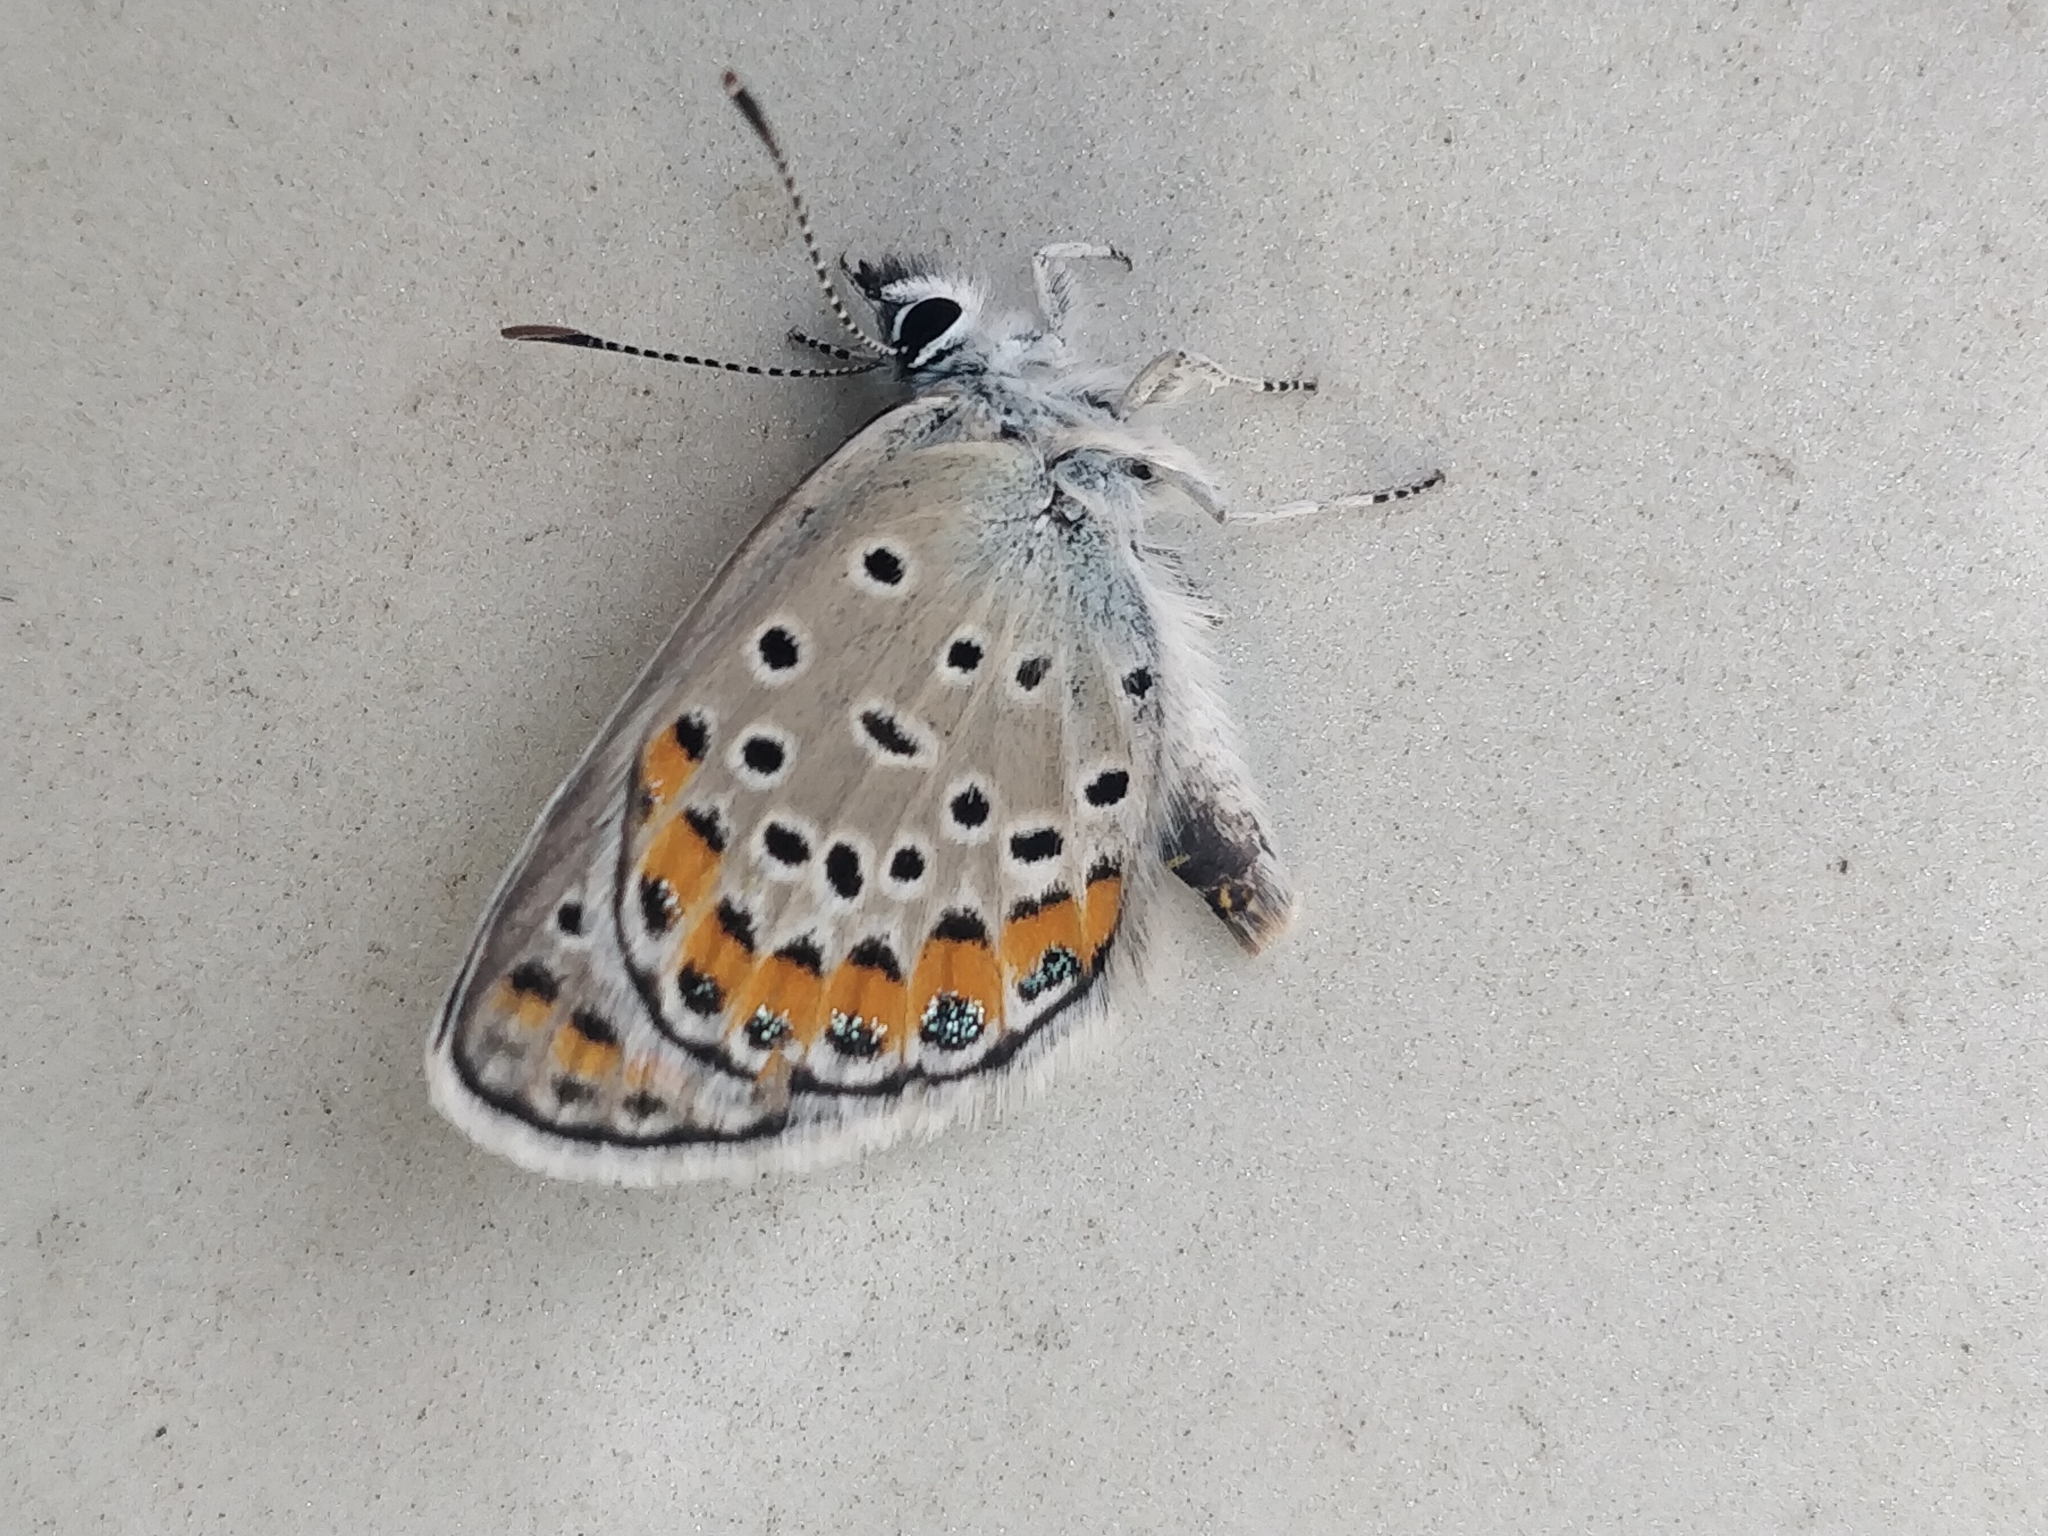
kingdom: Animalia
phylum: Arthropoda
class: Insecta
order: Lepidoptera
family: Lycaenidae
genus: Lycaeides
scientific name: Lycaeides melissa
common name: Melissa blue
